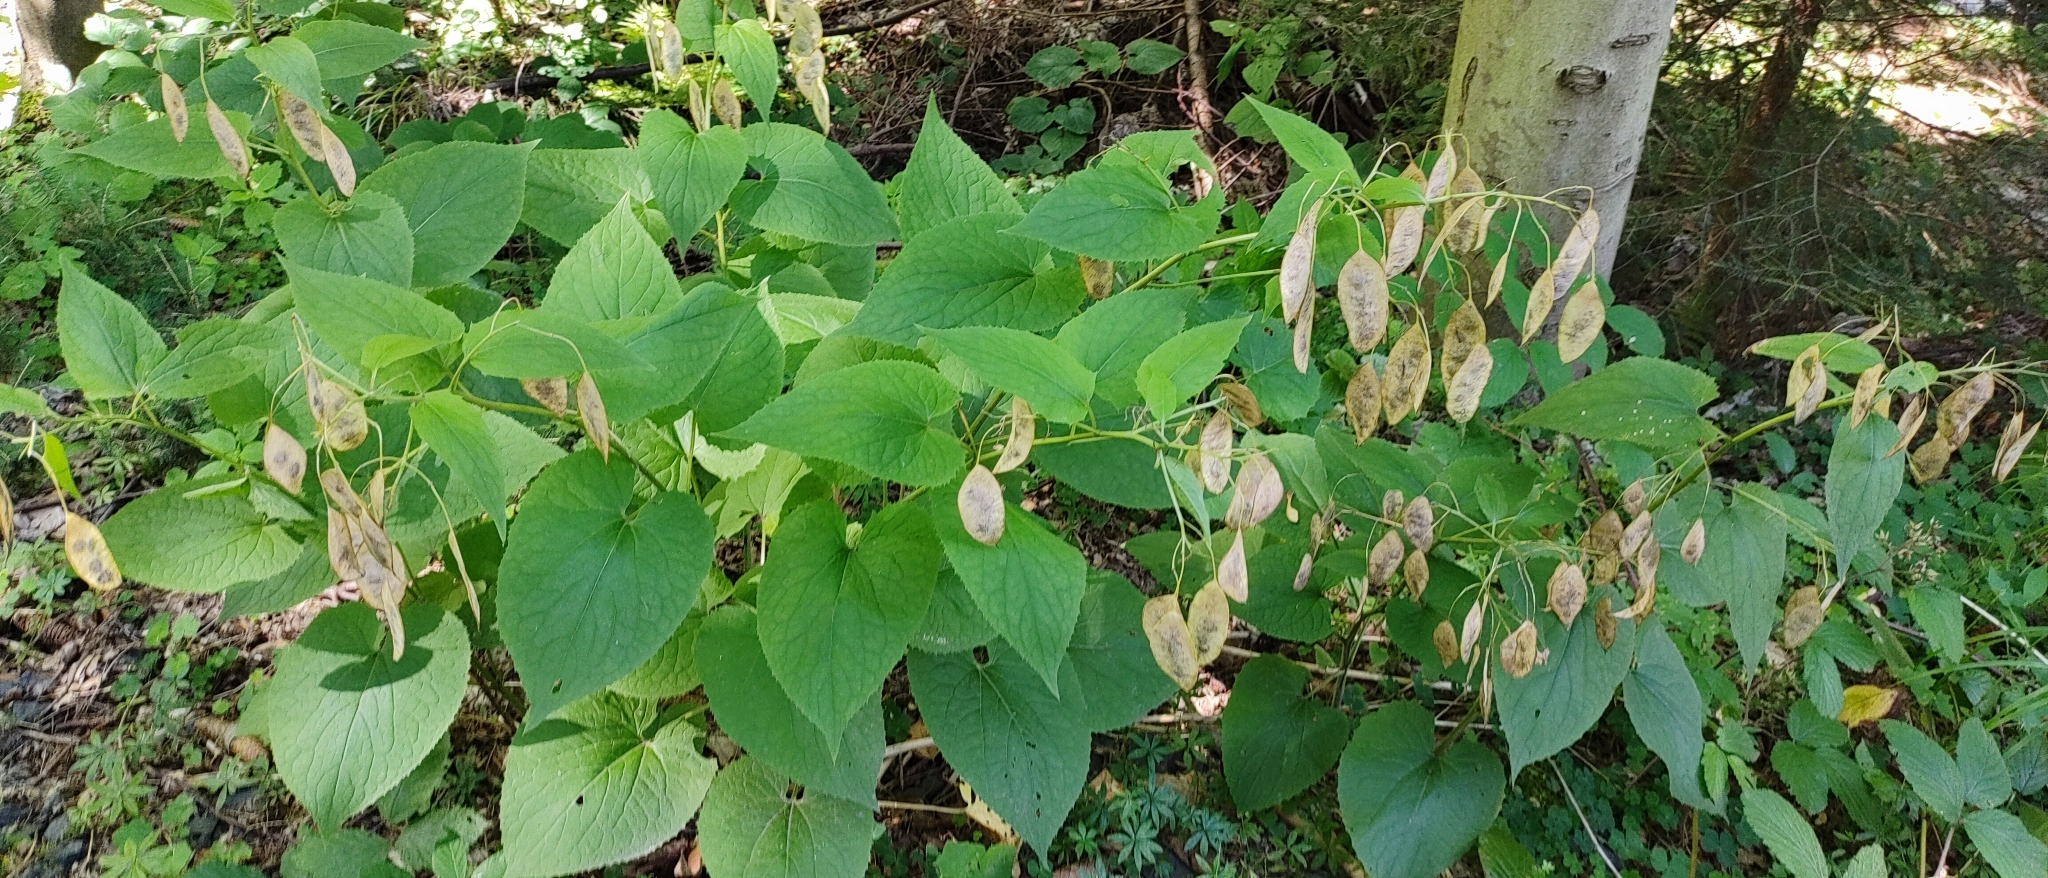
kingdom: Plantae
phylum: Tracheophyta
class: Magnoliopsida
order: Brassicales
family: Brassicaceae
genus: Lunaria
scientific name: Lunaria rediviva
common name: Perennial honesty
